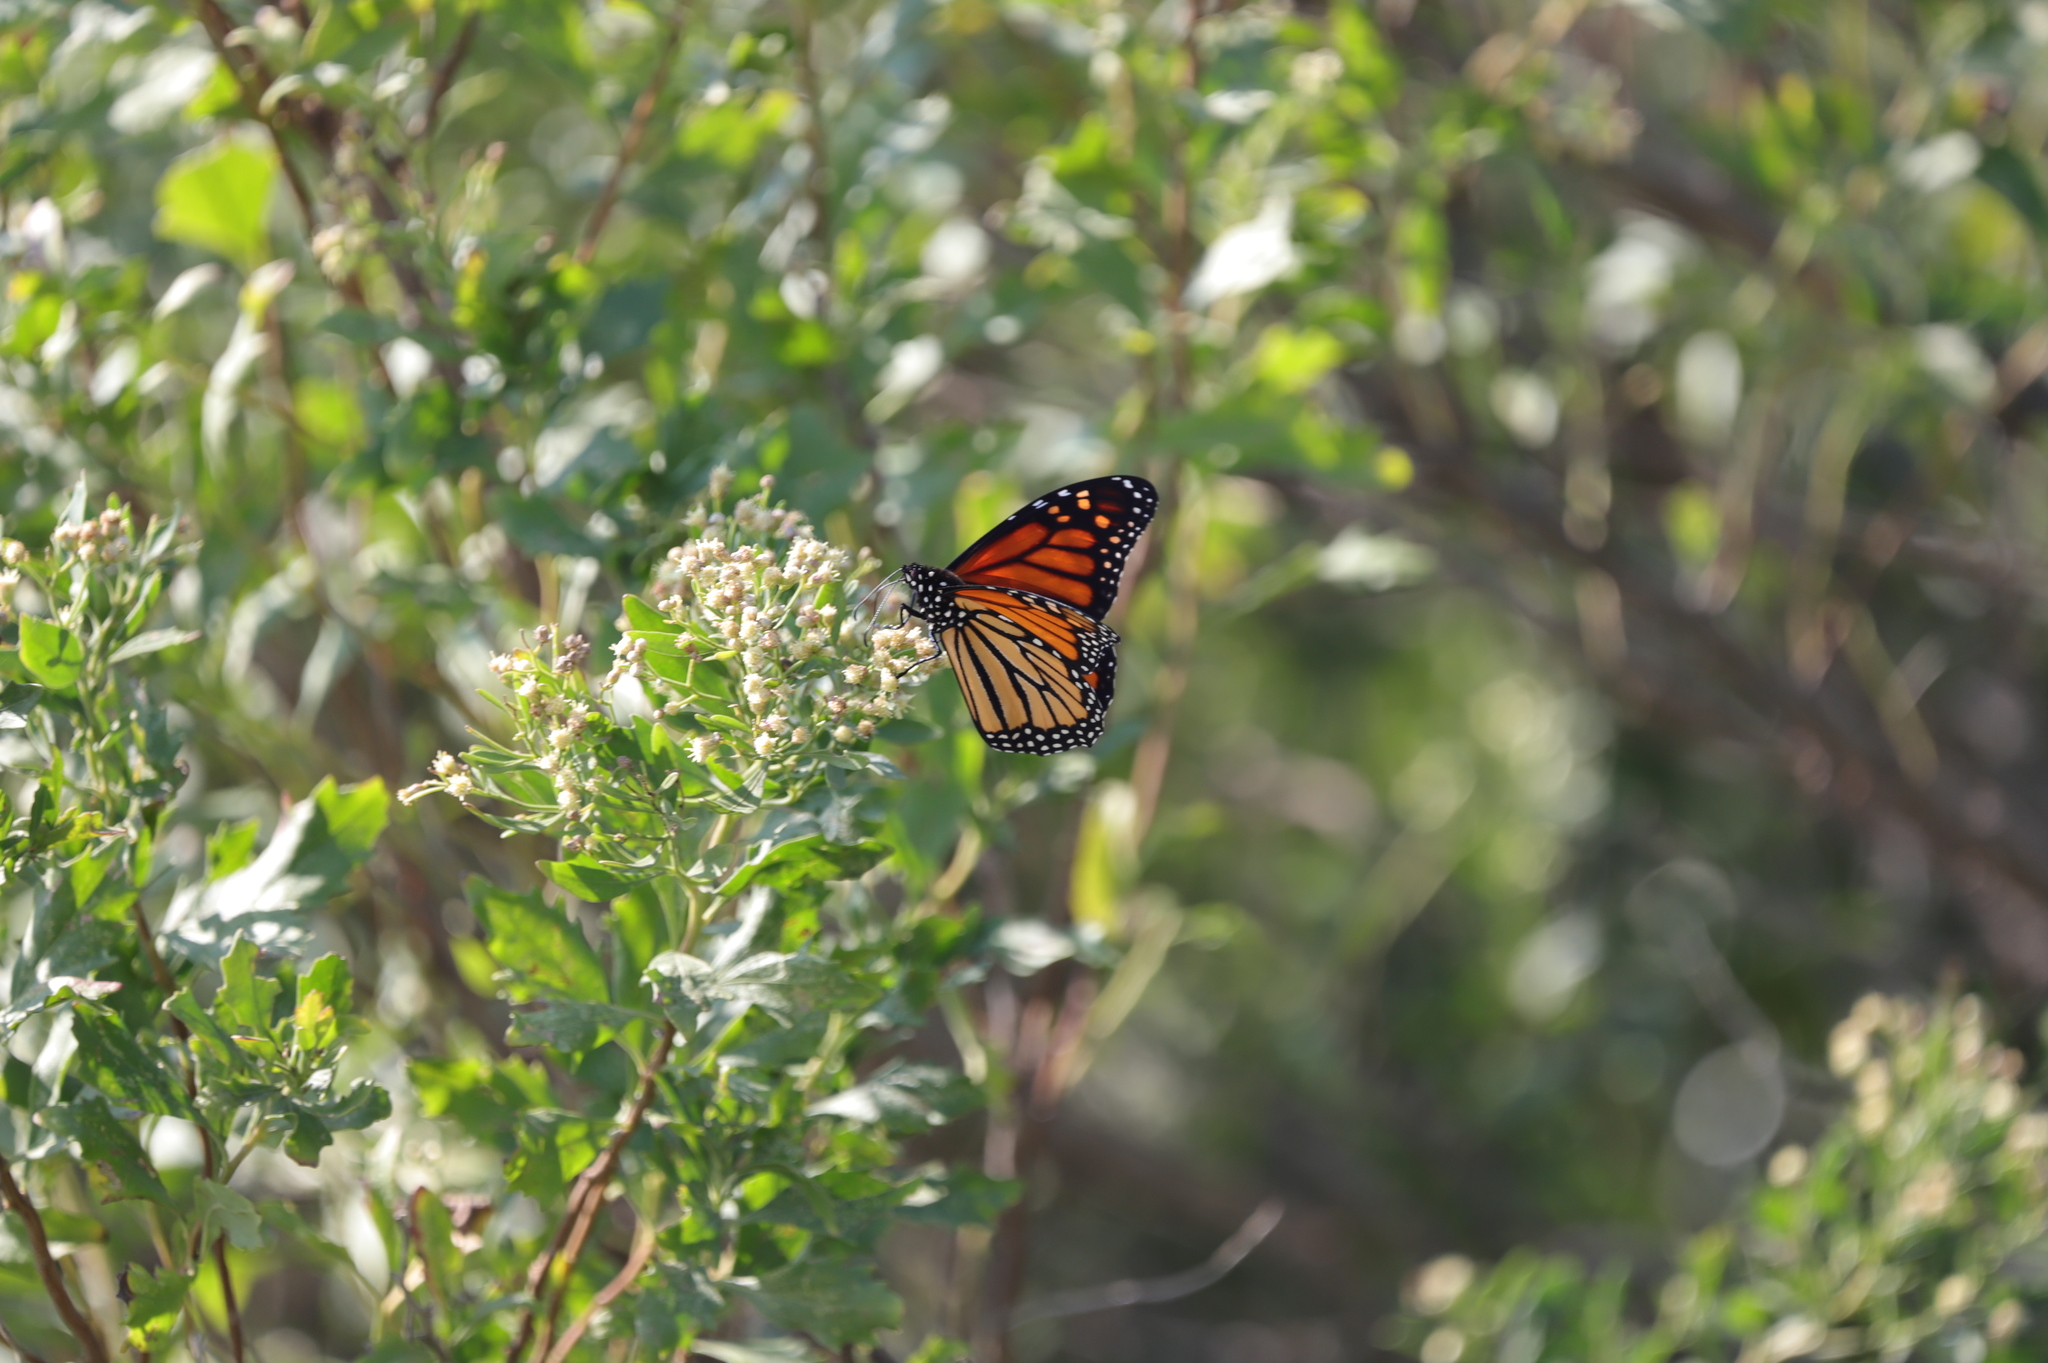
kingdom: Animalia
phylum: Arthropoda
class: Insecta
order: Lepidoptera
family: Nymphalidae
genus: Danaus
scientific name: Danaus plexippus
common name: Monarch
